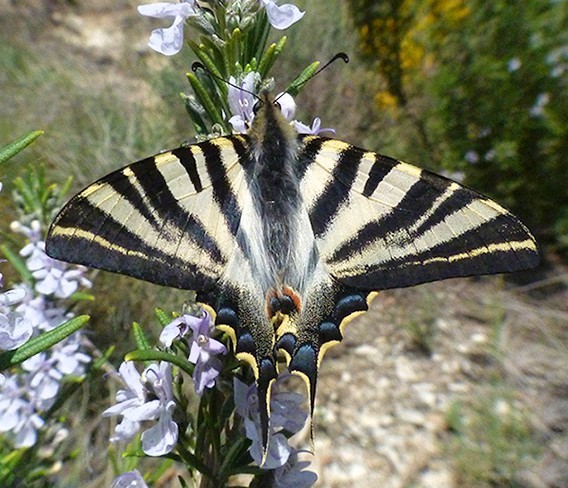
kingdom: Animalia
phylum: Arthropoda
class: Insecta
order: Lepidoptera
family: Papilionidae
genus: Iphiclides
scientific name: Iphiclides feisthamelii
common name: Iberian scarce swallowtail
